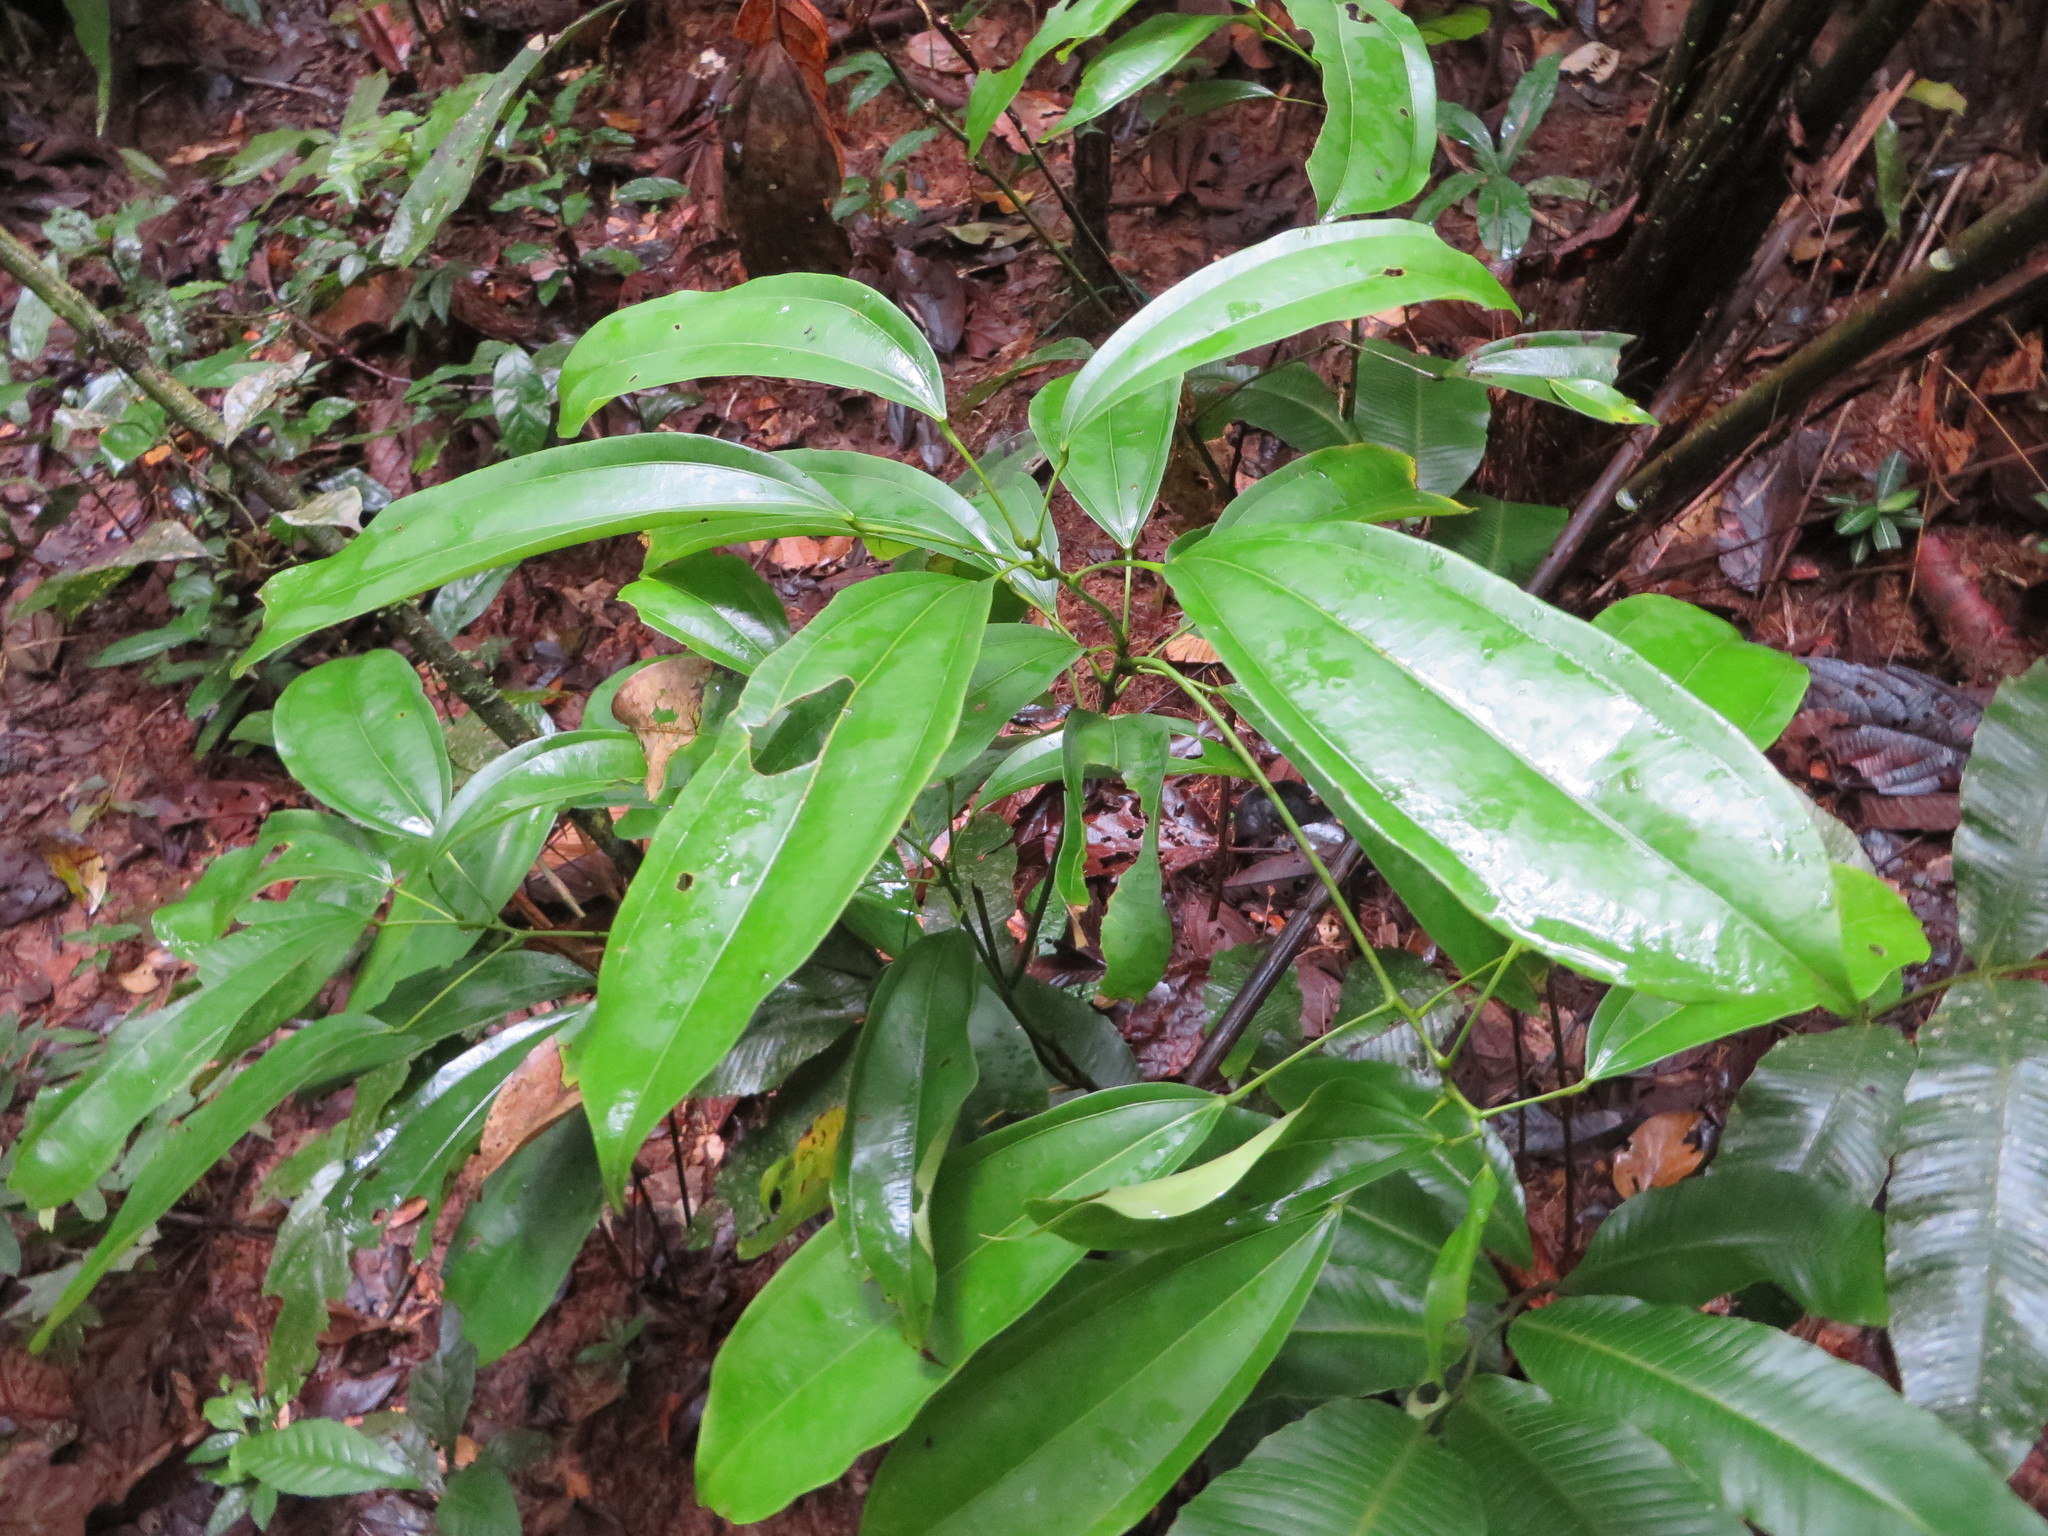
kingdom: Plantae
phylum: Tracheophyta
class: Magnoliopsida
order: Ranunculales
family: Menispermaceae
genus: Abuta
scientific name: Abuta grandifolia
